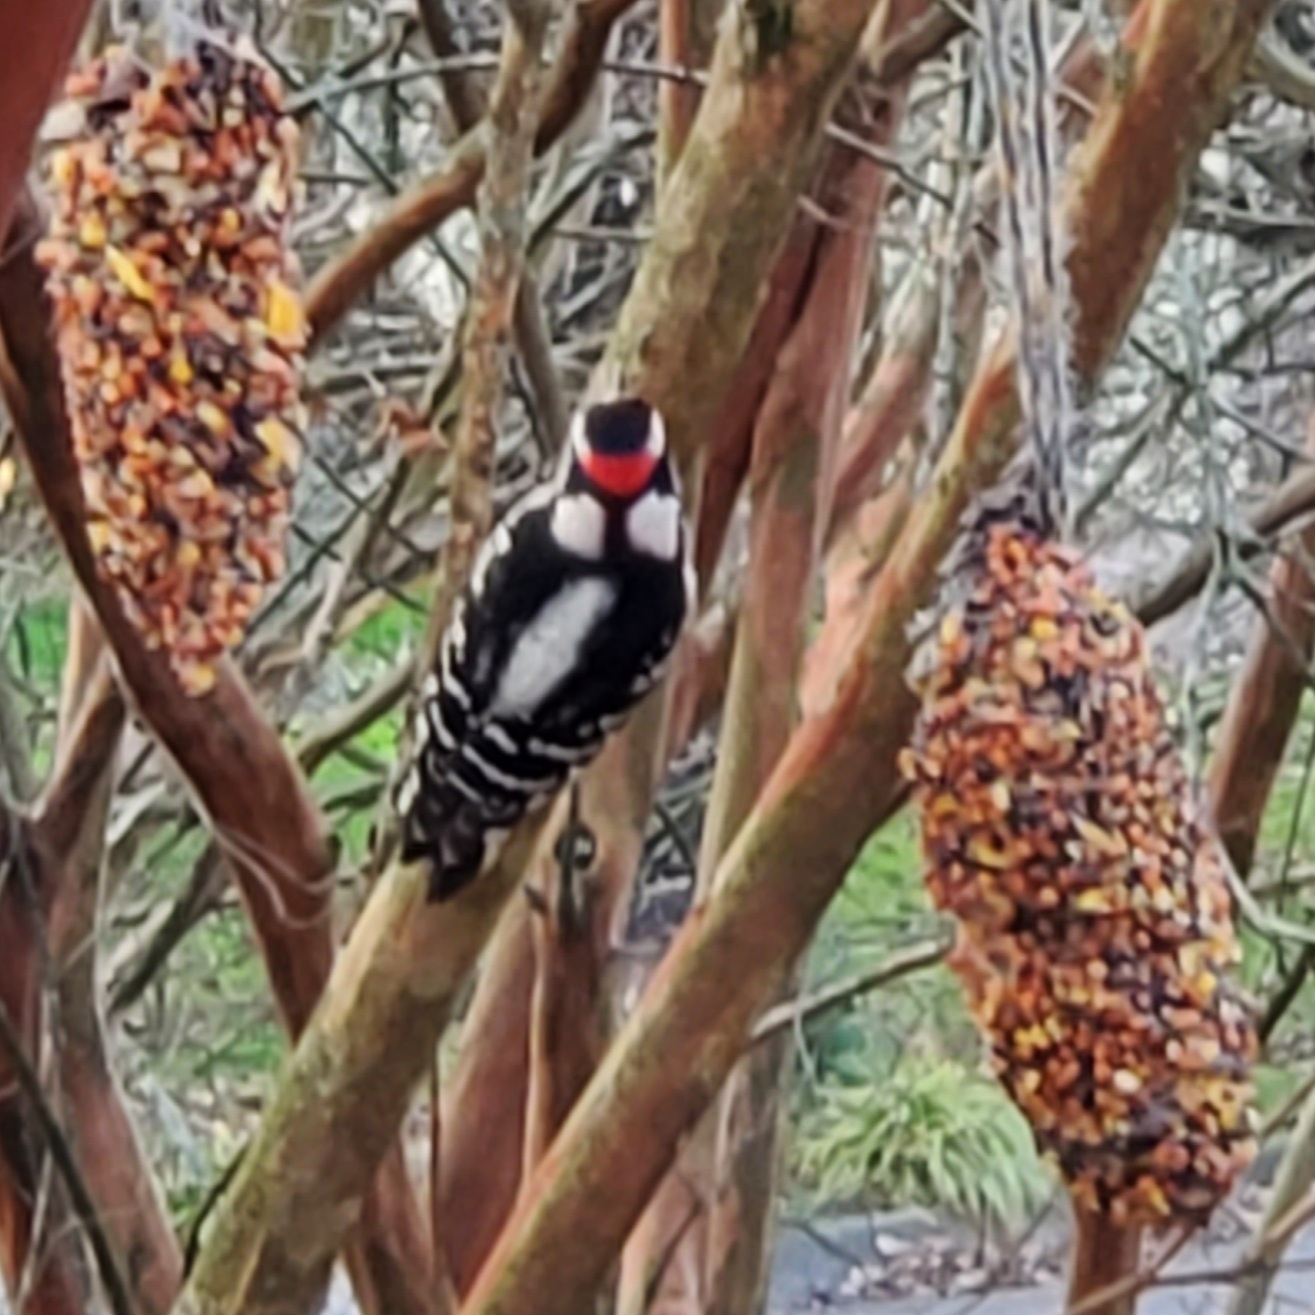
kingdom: Animalia
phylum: Chordata
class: Aves
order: Piciformes
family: Picidae
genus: Dryobates
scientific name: Dryobates pubescens
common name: Downy woodpecker
